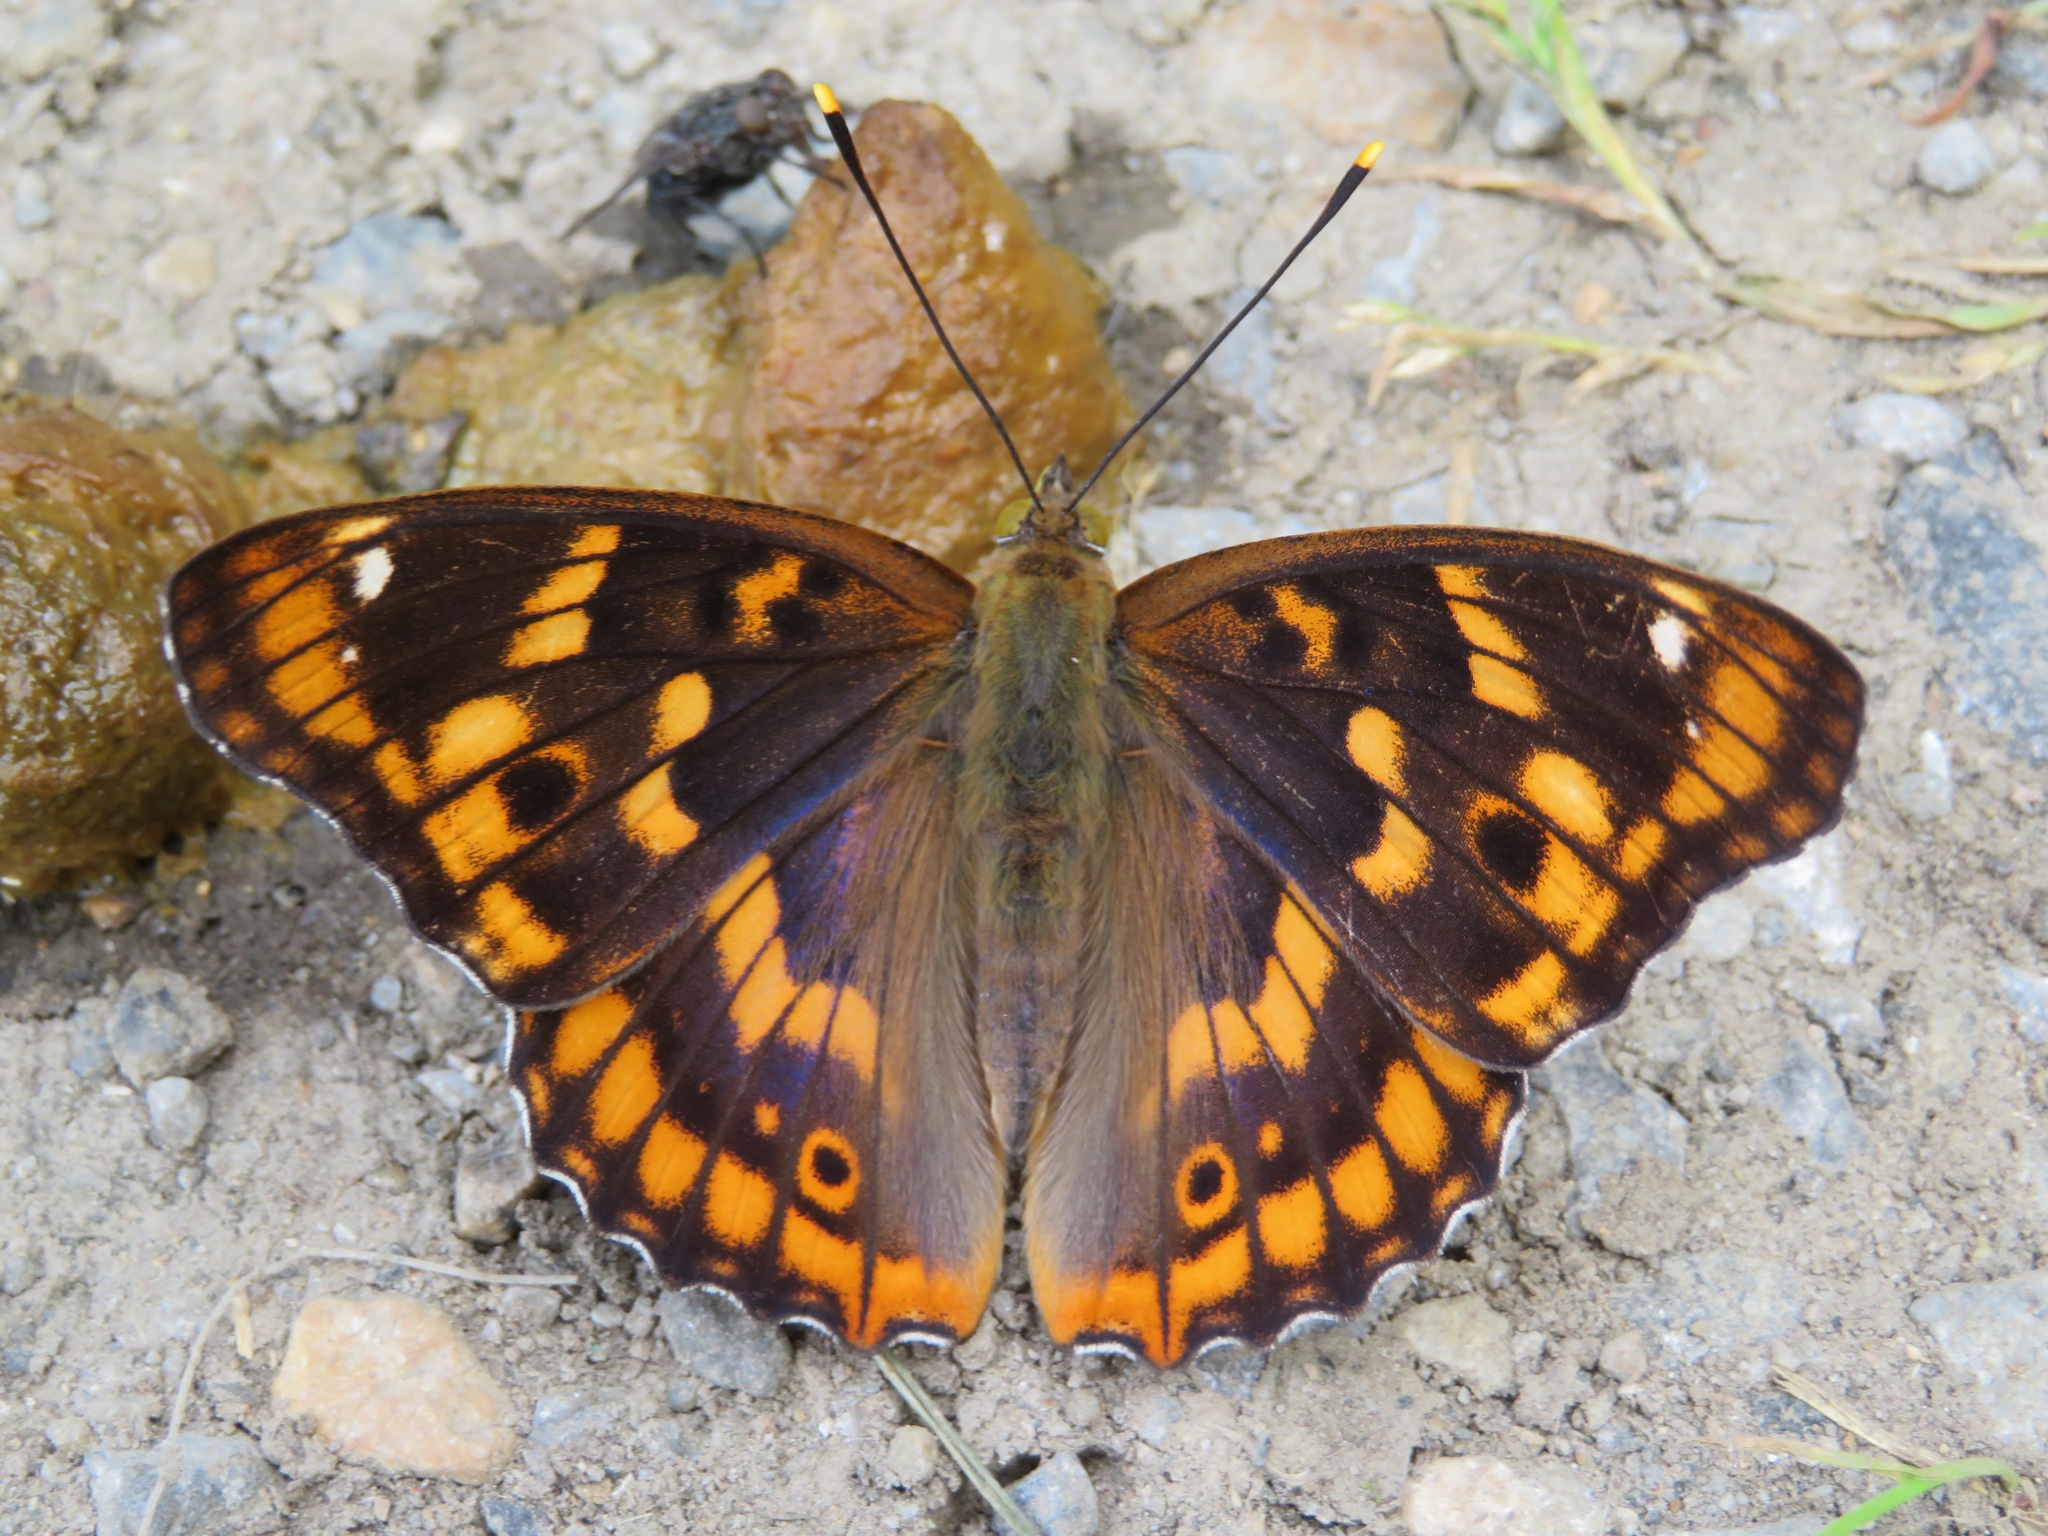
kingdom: Animalia
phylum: Arthropoda
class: Insecta
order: Lepidoptera
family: Nymphalidae
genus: Apatura
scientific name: Apatura ilia
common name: Lesser purple emperor
